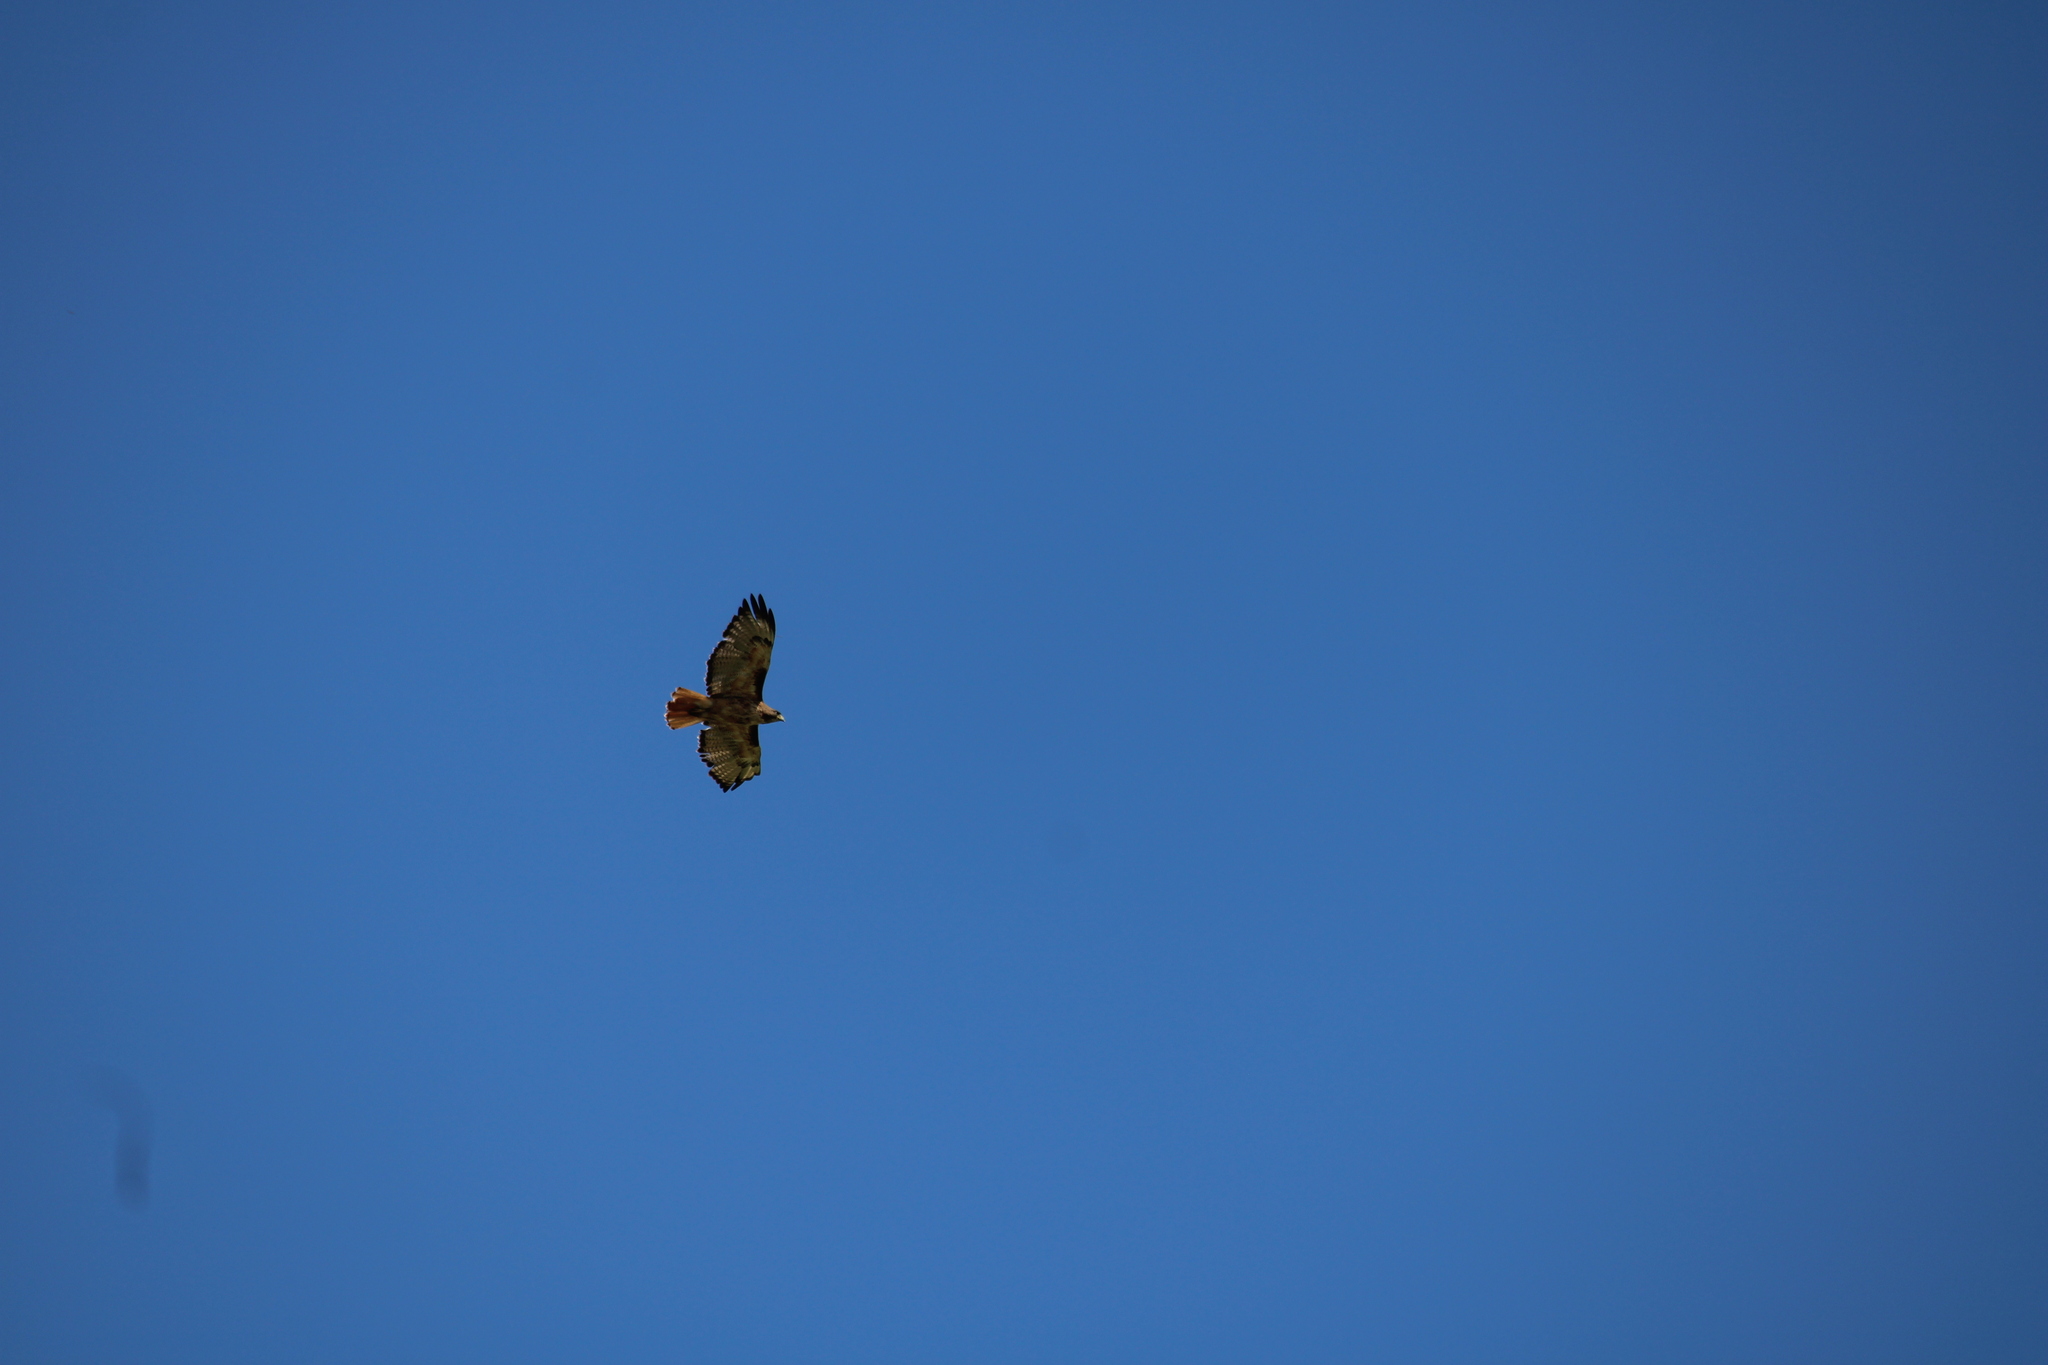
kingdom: Animalia
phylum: Chordata
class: Aves
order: Accipitriformes
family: Accipitridae
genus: Buteo
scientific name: Buteo jamaicensis
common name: Red-tailed hawk
